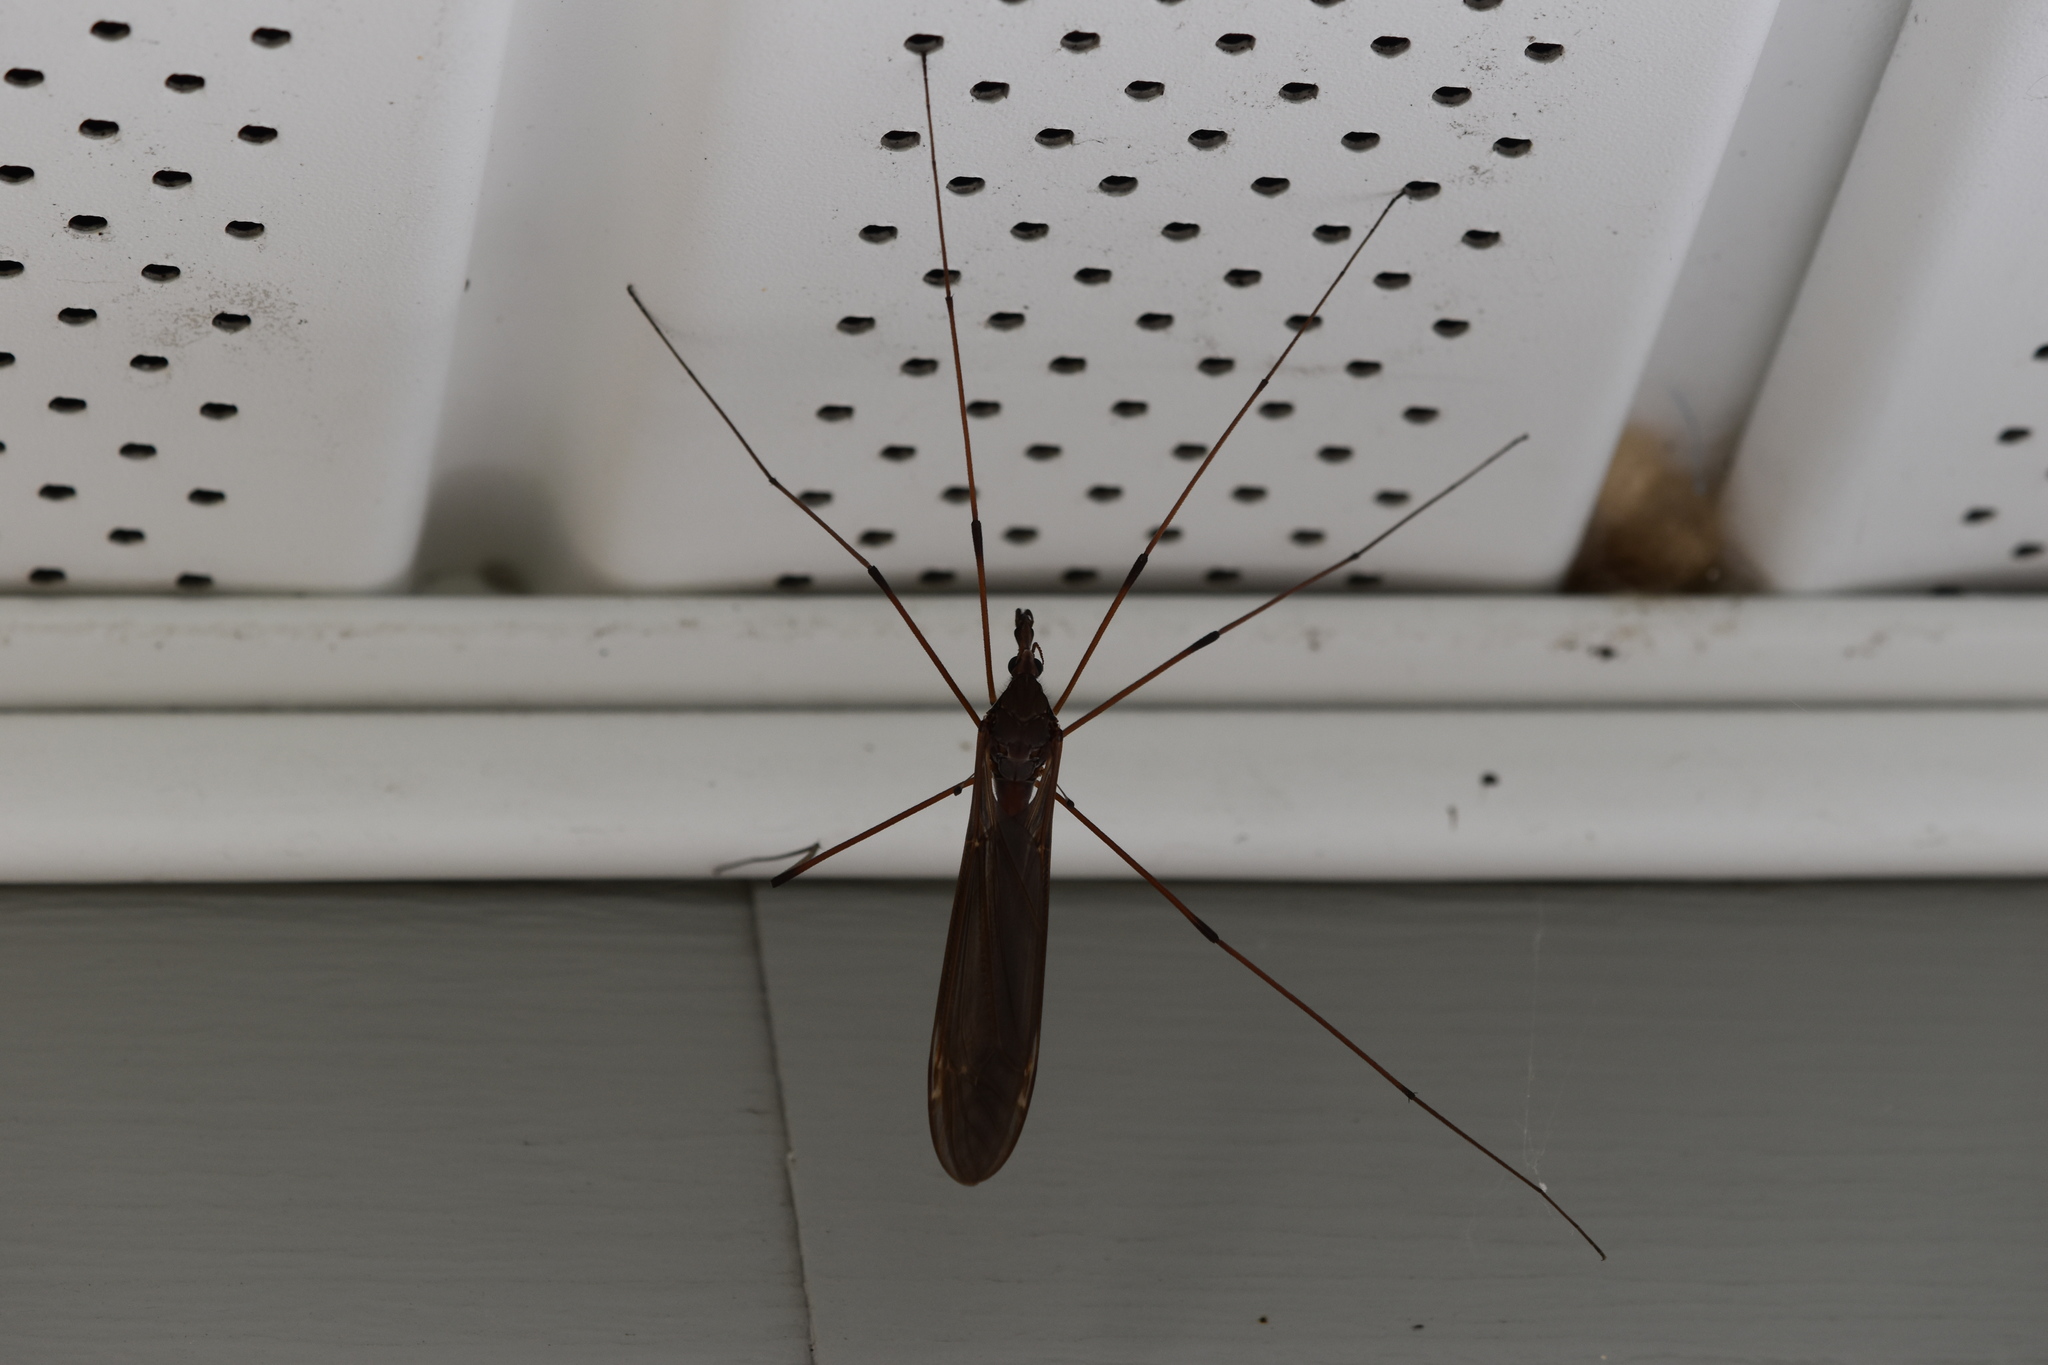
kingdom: Animalia
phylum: Arthropoda
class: Insecta
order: Diptera
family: Tipulidae
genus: Holorusia
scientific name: Holorusia hespera
